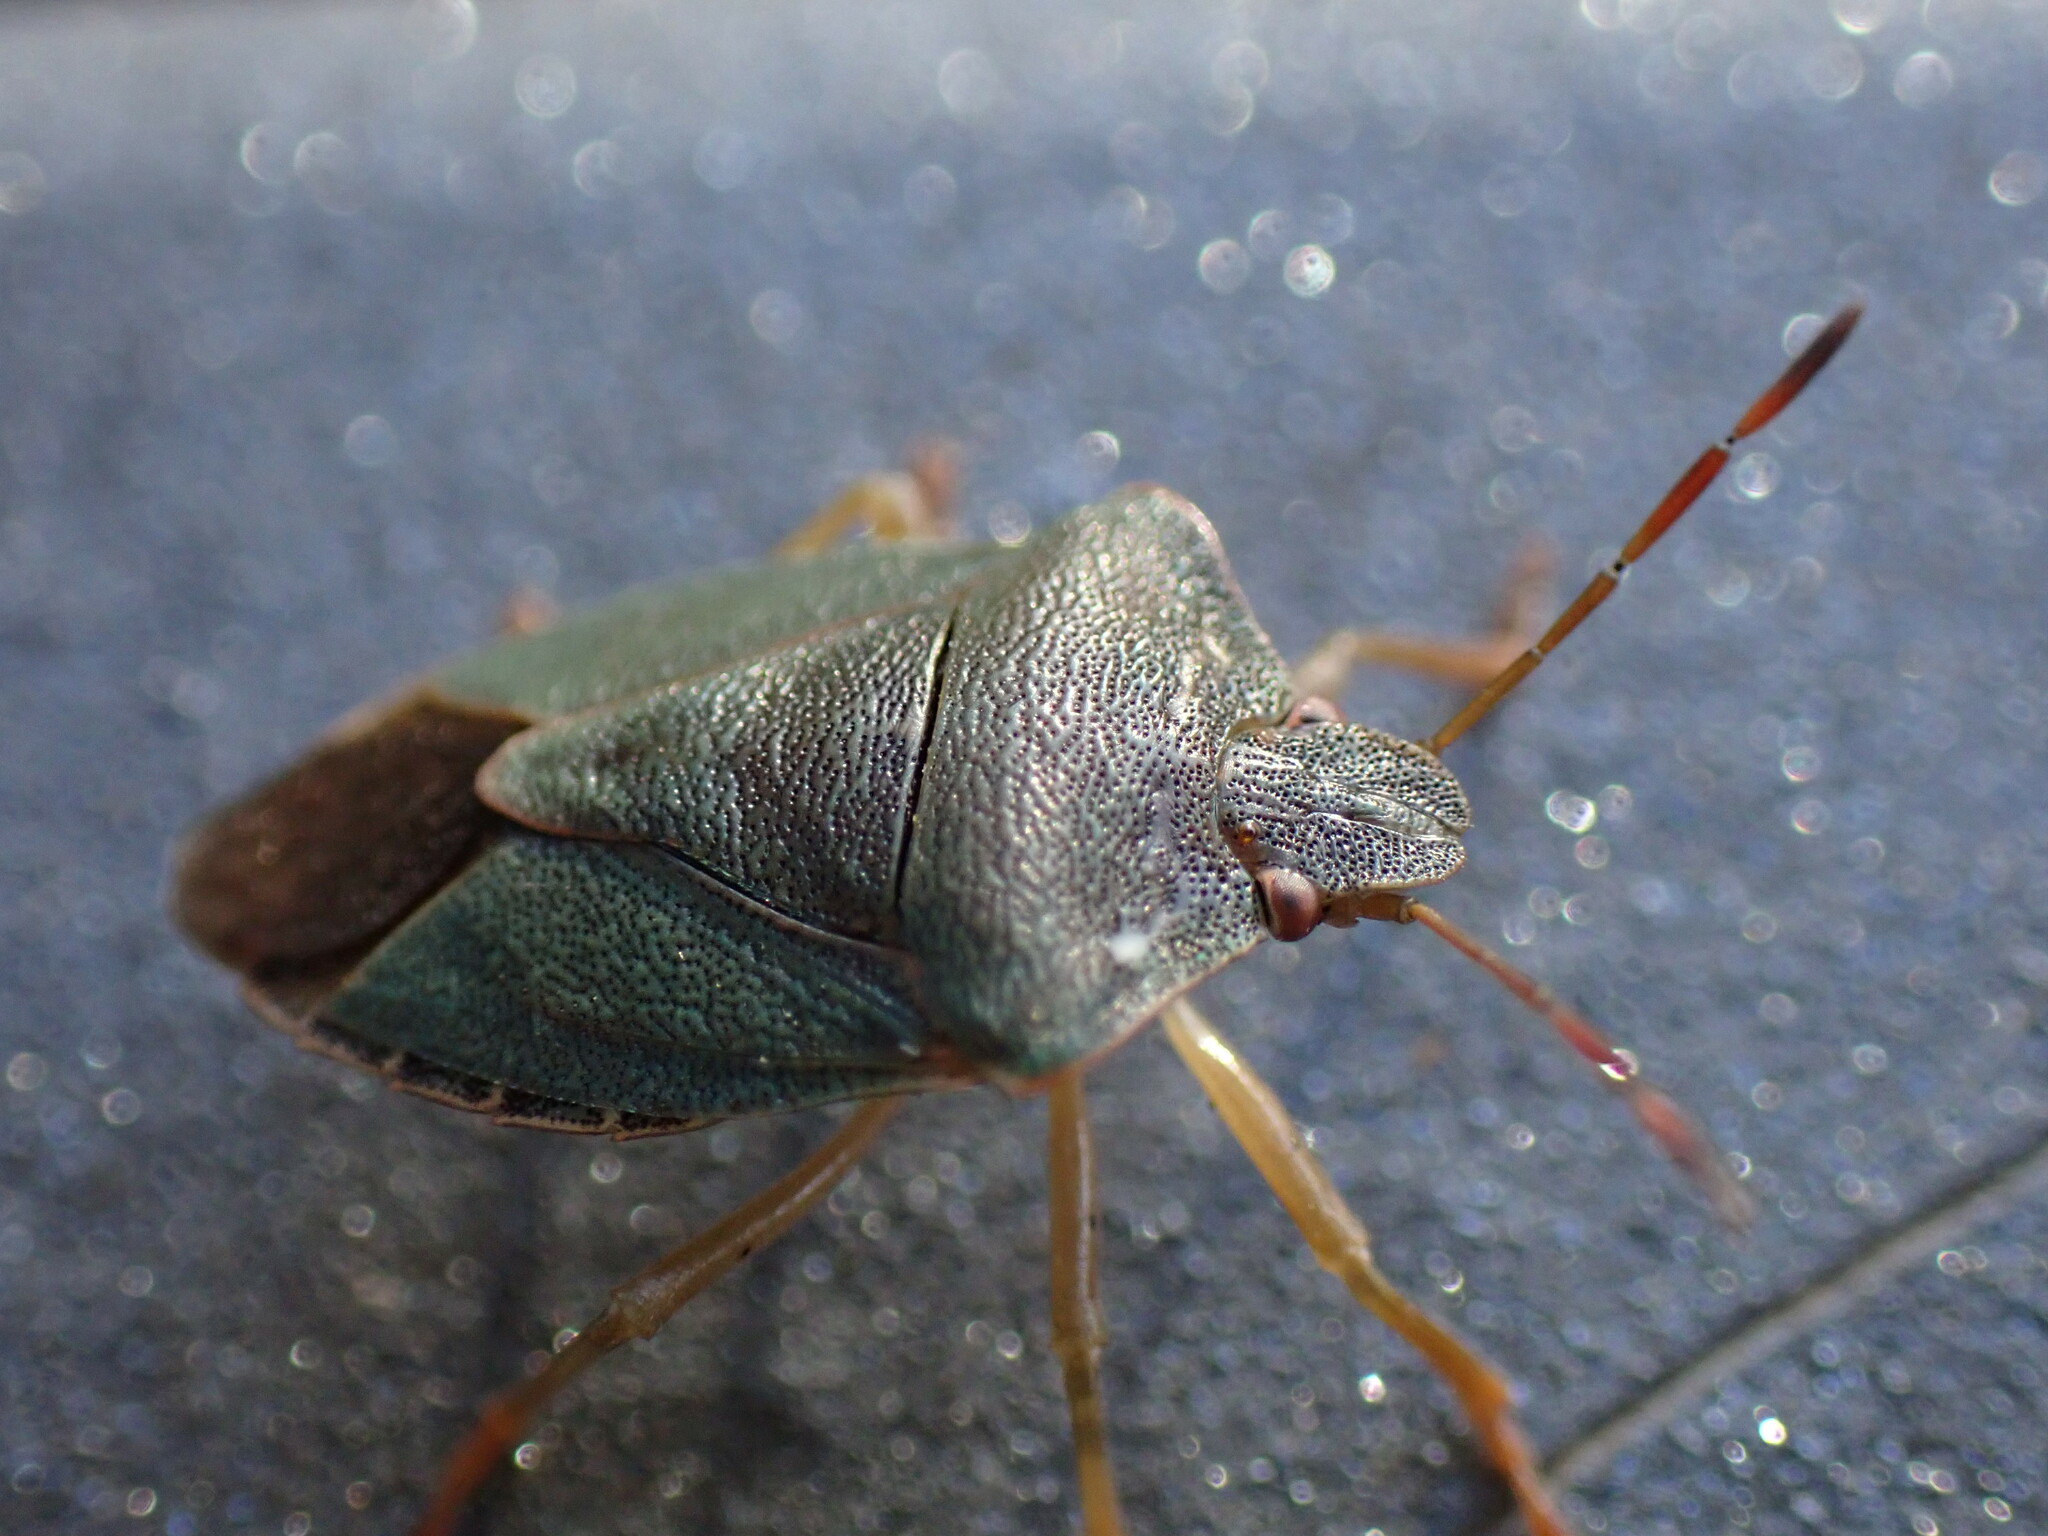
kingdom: Animalia
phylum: Arthropoda
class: Insecta
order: Hemiptera
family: Pentatomidae
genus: Palomena
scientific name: Palomena prasina
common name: Green shieldbug
